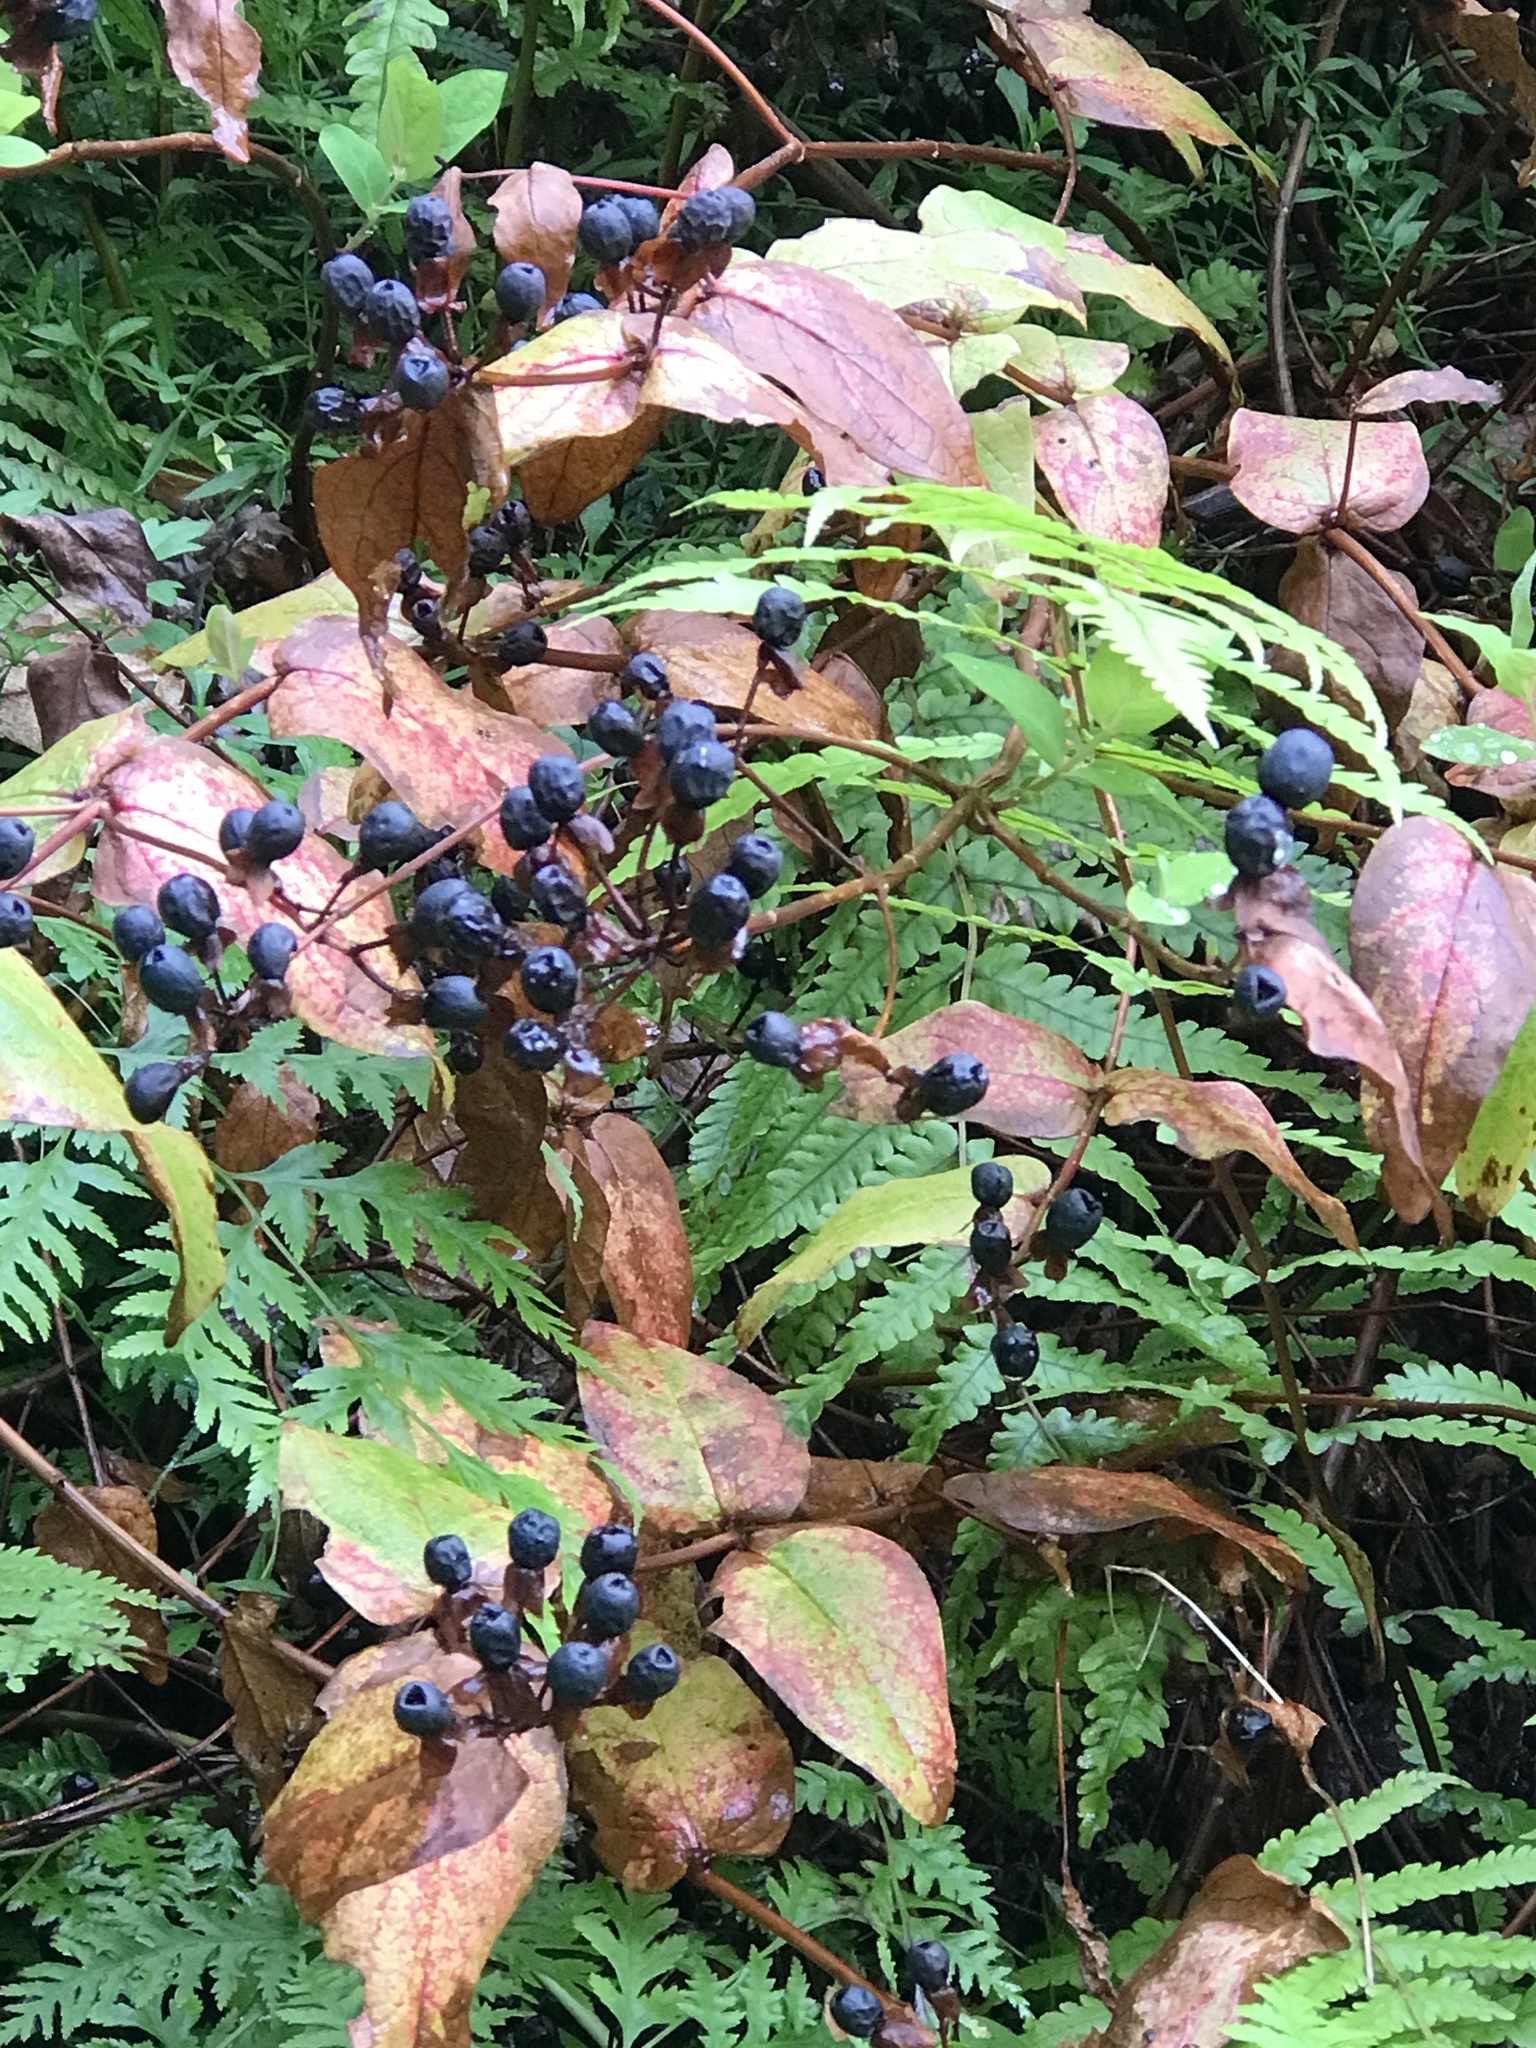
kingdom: Plantae
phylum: Tracheophyta
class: Magnoliopsida
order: Malpighiales
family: Hypericaceae
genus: Hypericum
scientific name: Hypericum androsaemum
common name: Sweet-amber
